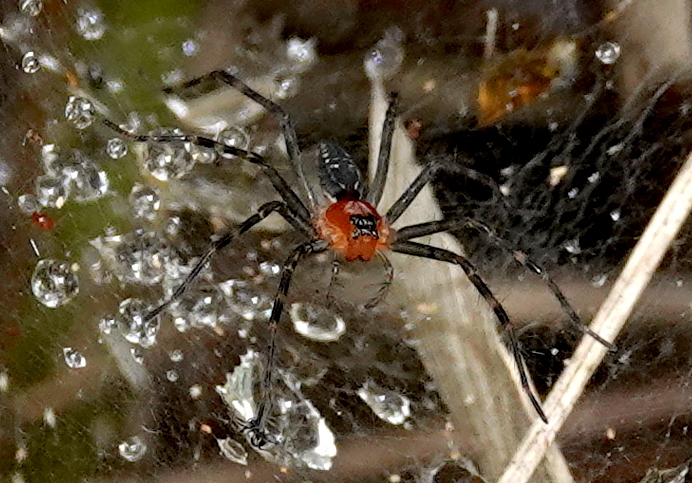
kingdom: Animalia
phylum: Arthropoda
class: Arachnida
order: Araneae
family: Lycosidae
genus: Aglaoctenus
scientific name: Aglaoctenus castaneus
